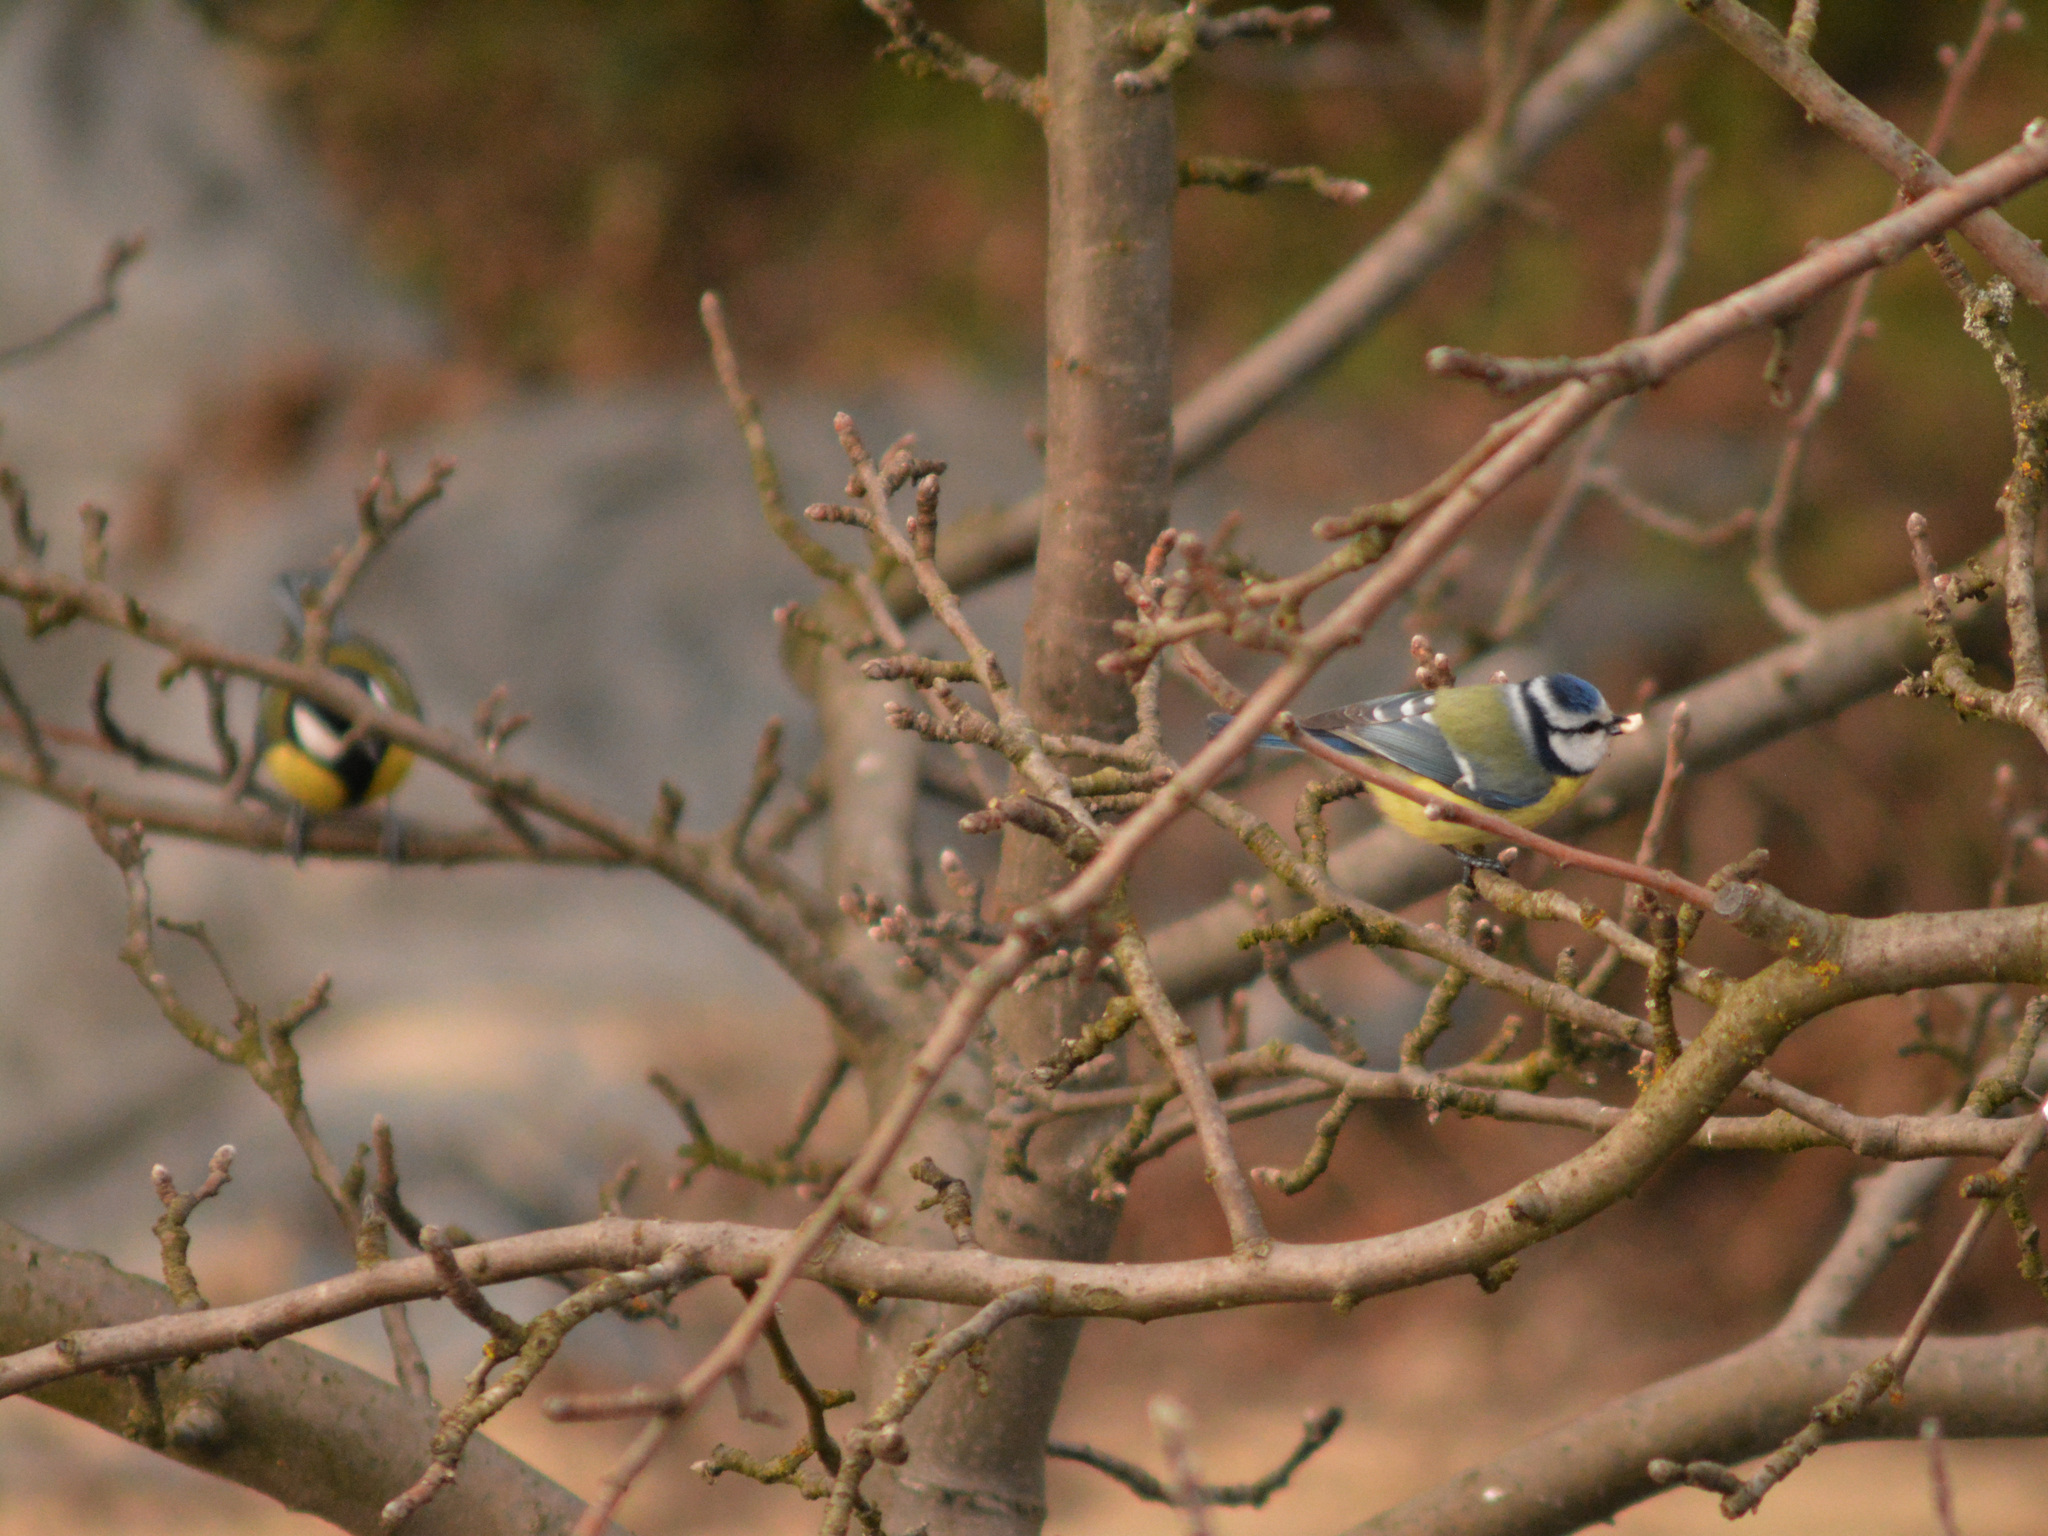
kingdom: Animalia
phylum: Chordata
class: Aves
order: Passeriformes
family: Paridae
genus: Cyanistes
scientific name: Cyanistes caeruleus
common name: Eurasian blue tit
